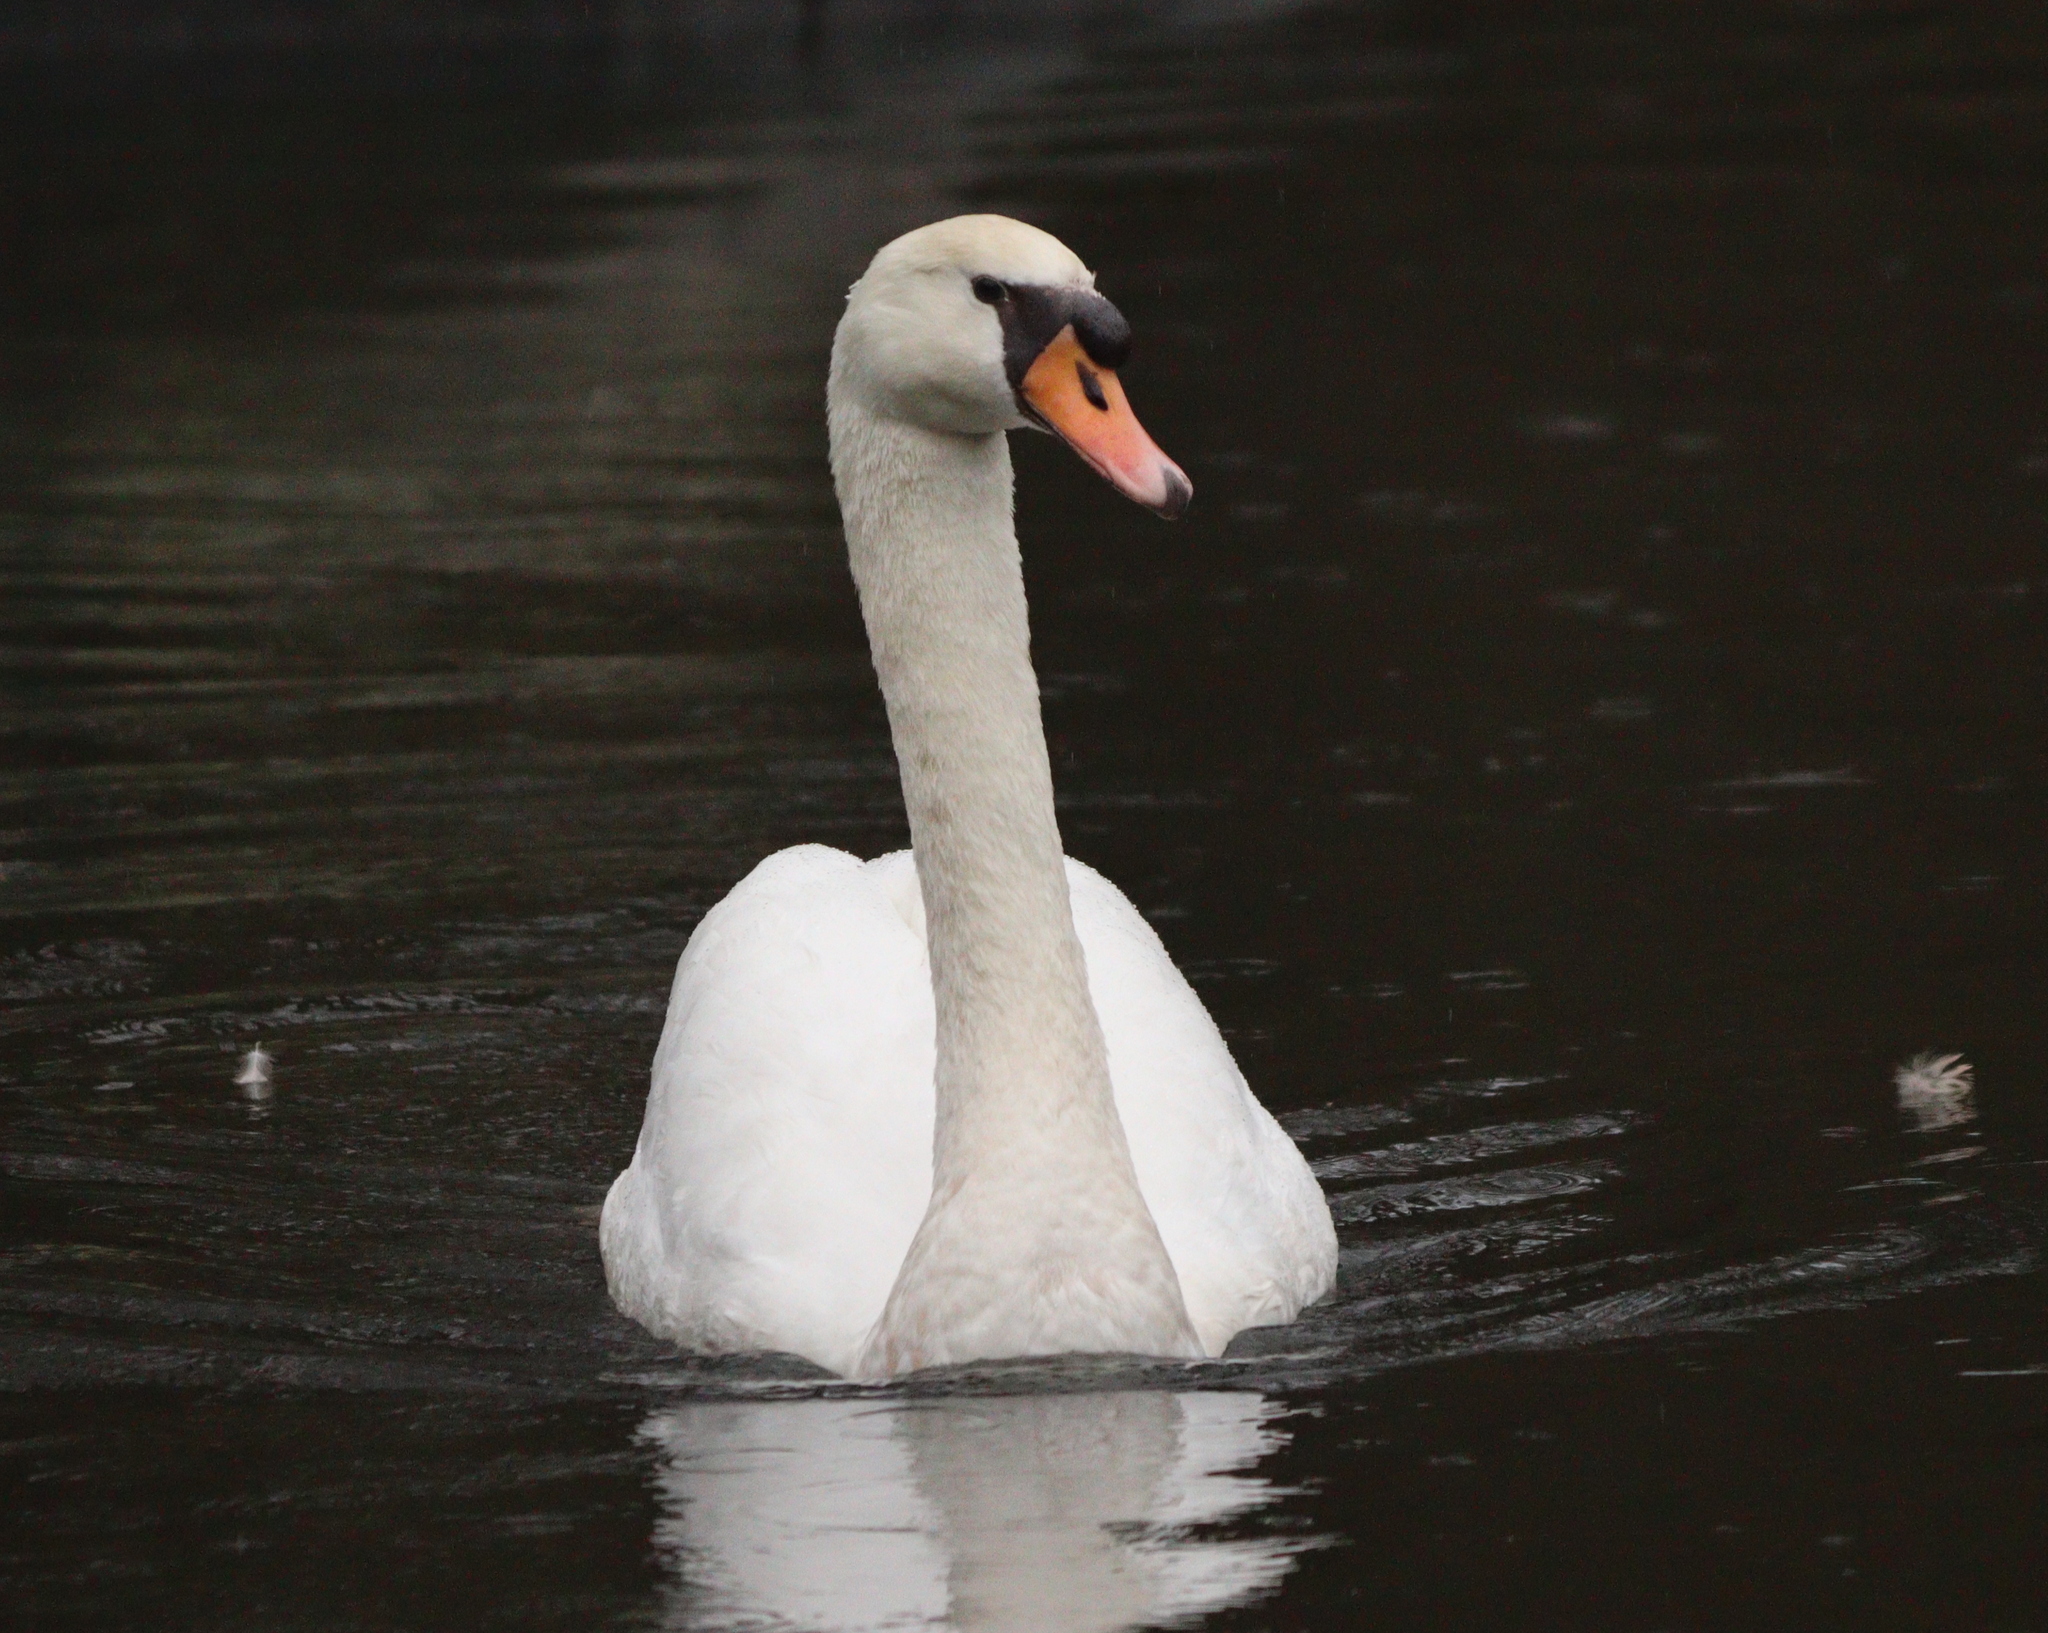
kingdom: Animalia
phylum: Chordata
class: Aves
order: Anseriformes
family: Anatidae
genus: Cygnus
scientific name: Cygnus olor
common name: Mute swan
